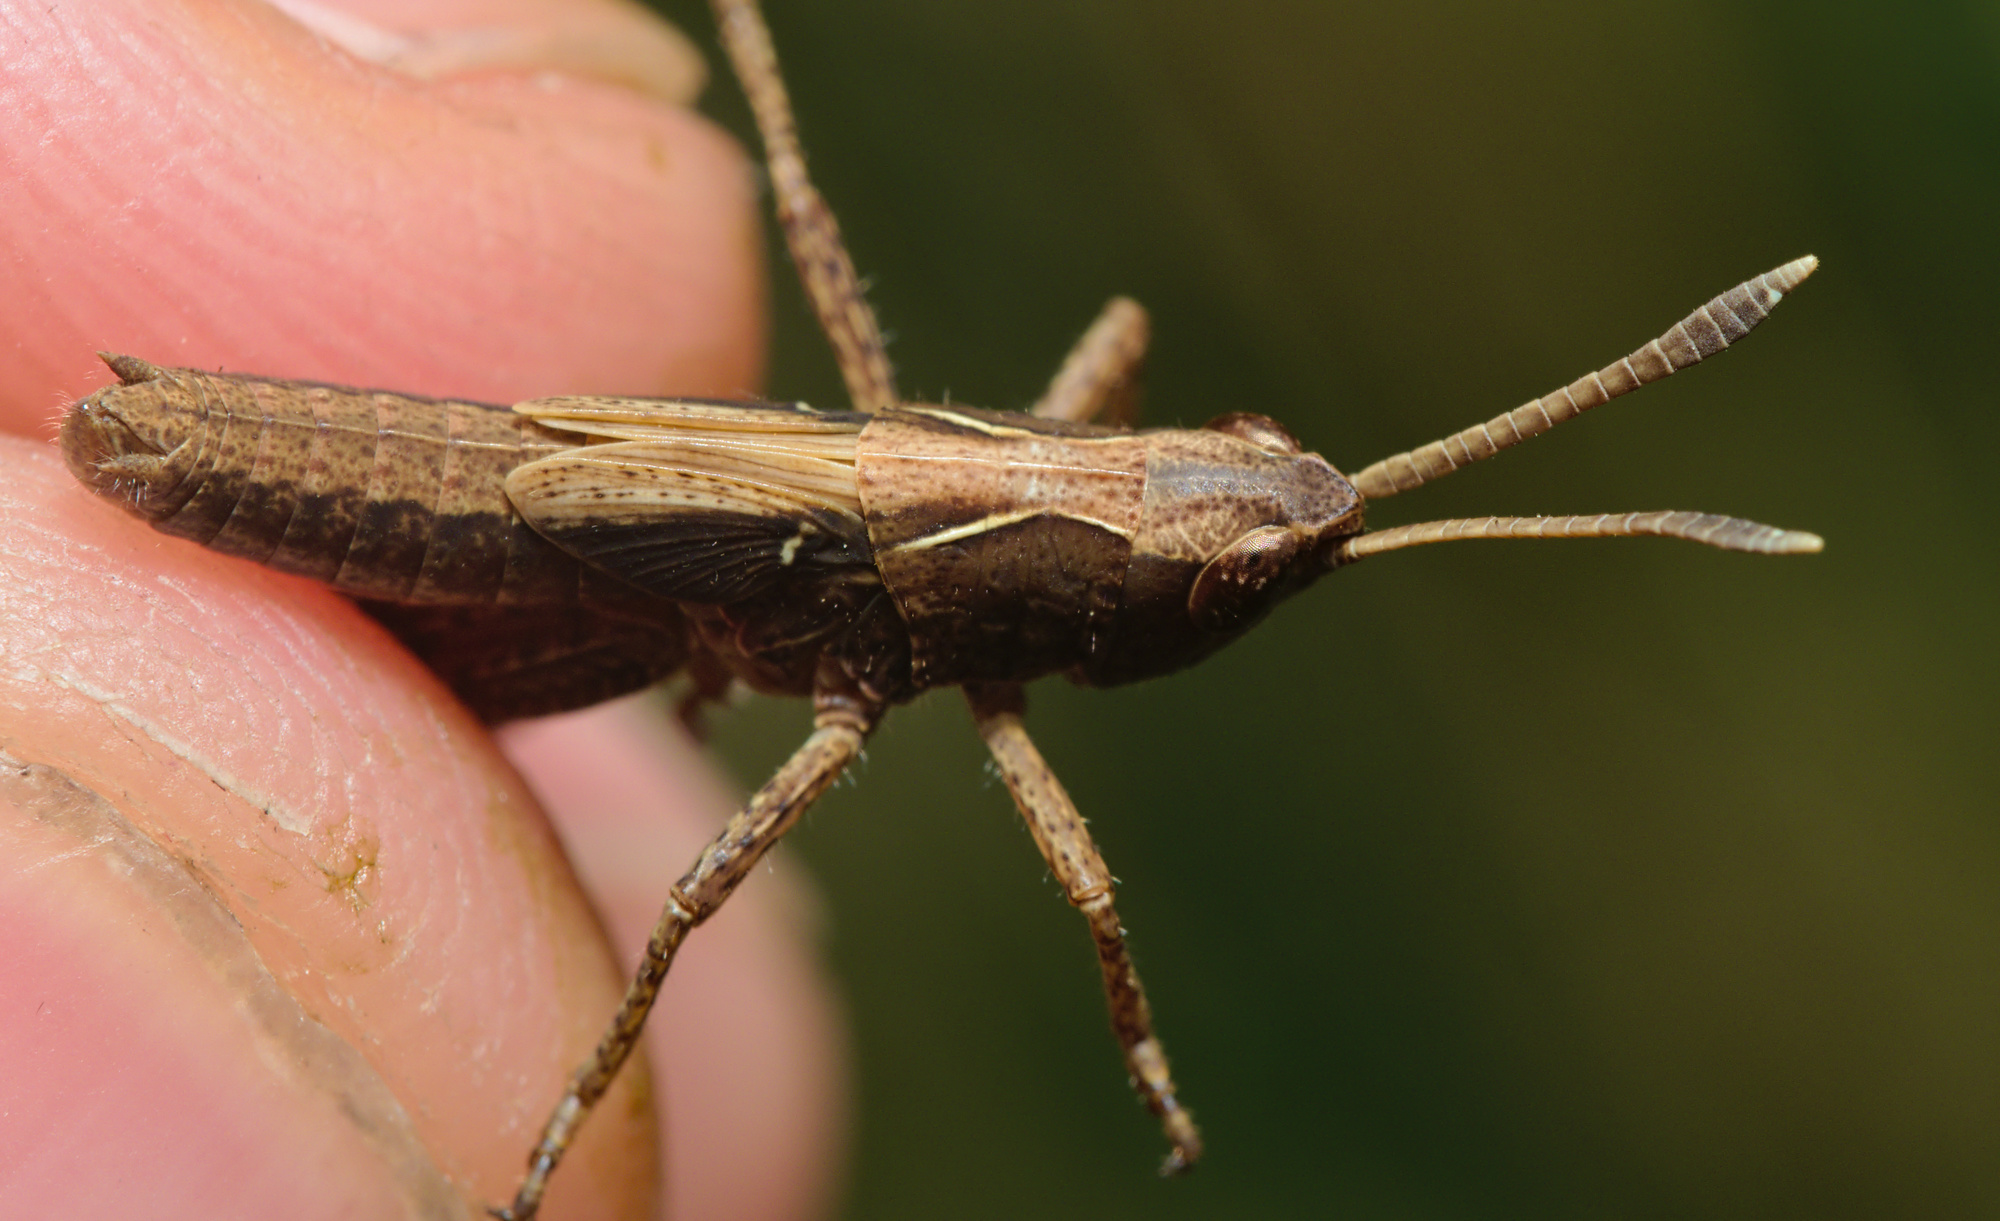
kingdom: Animalia
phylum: Arthropoda
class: Insecta
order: Orthoptera
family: Acrididae
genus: Gomphocerippus
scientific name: Gomphocerippus rufus
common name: Rufous grasshopper
